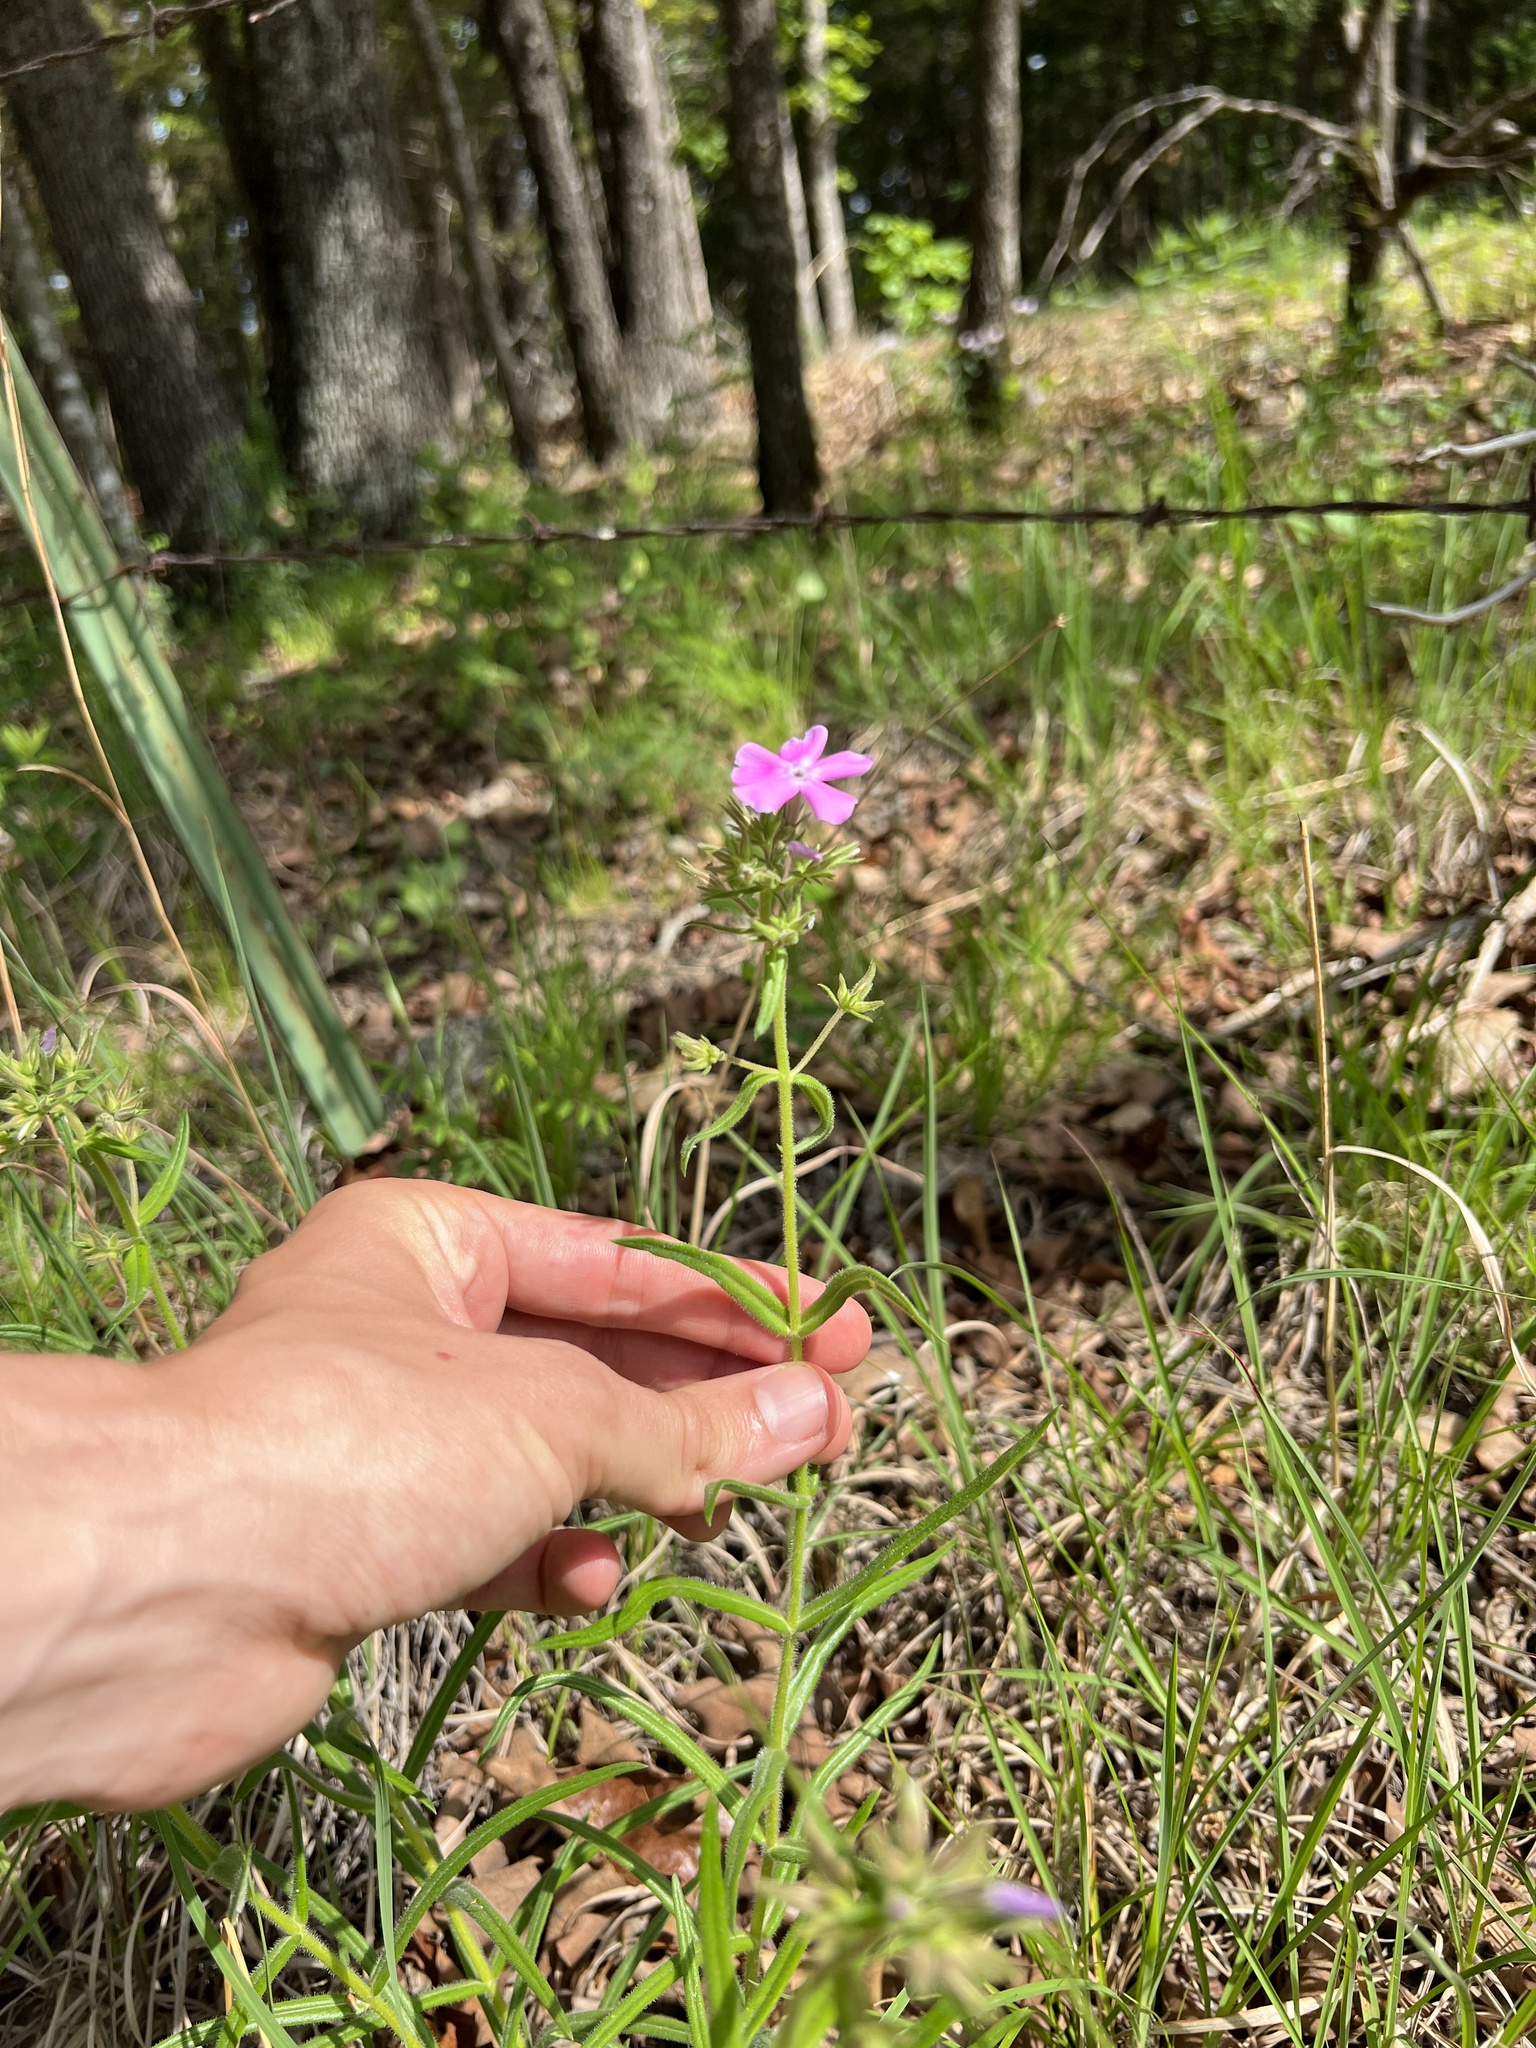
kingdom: Plantae
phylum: Tracheophyta
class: Magnoliopsida
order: Ericales
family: Polemoniaceae
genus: Phlox
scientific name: Phlox pilosa
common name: Prairie phlox
